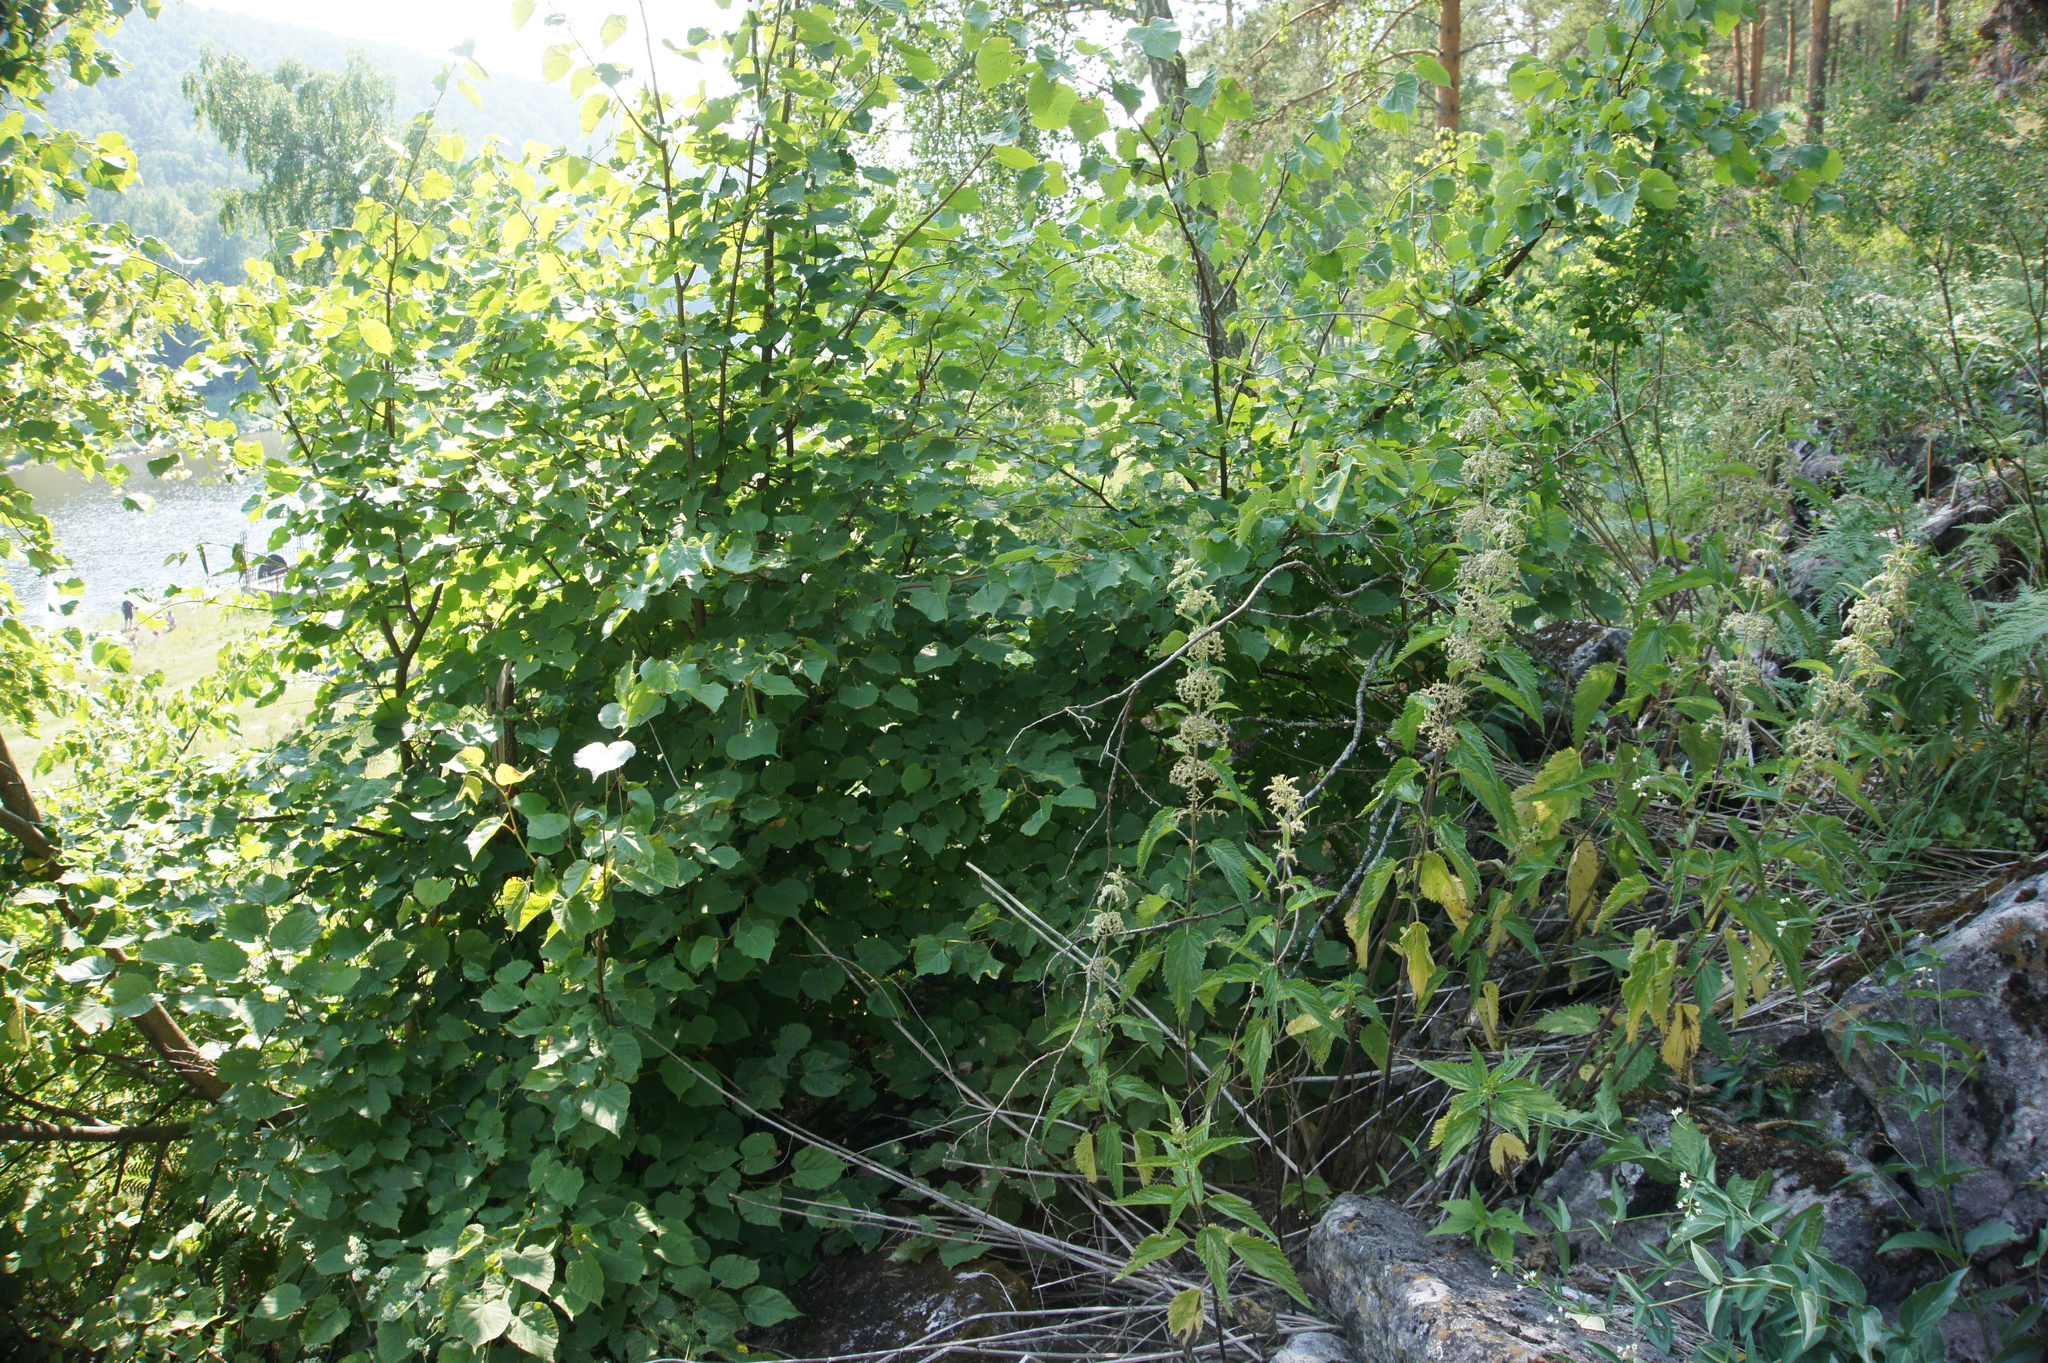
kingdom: Plantae
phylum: Tracheophyta
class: Magnoliopsida
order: Rosales
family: Urticaceae
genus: Urtica
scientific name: Urtica dioica
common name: Common nettle
